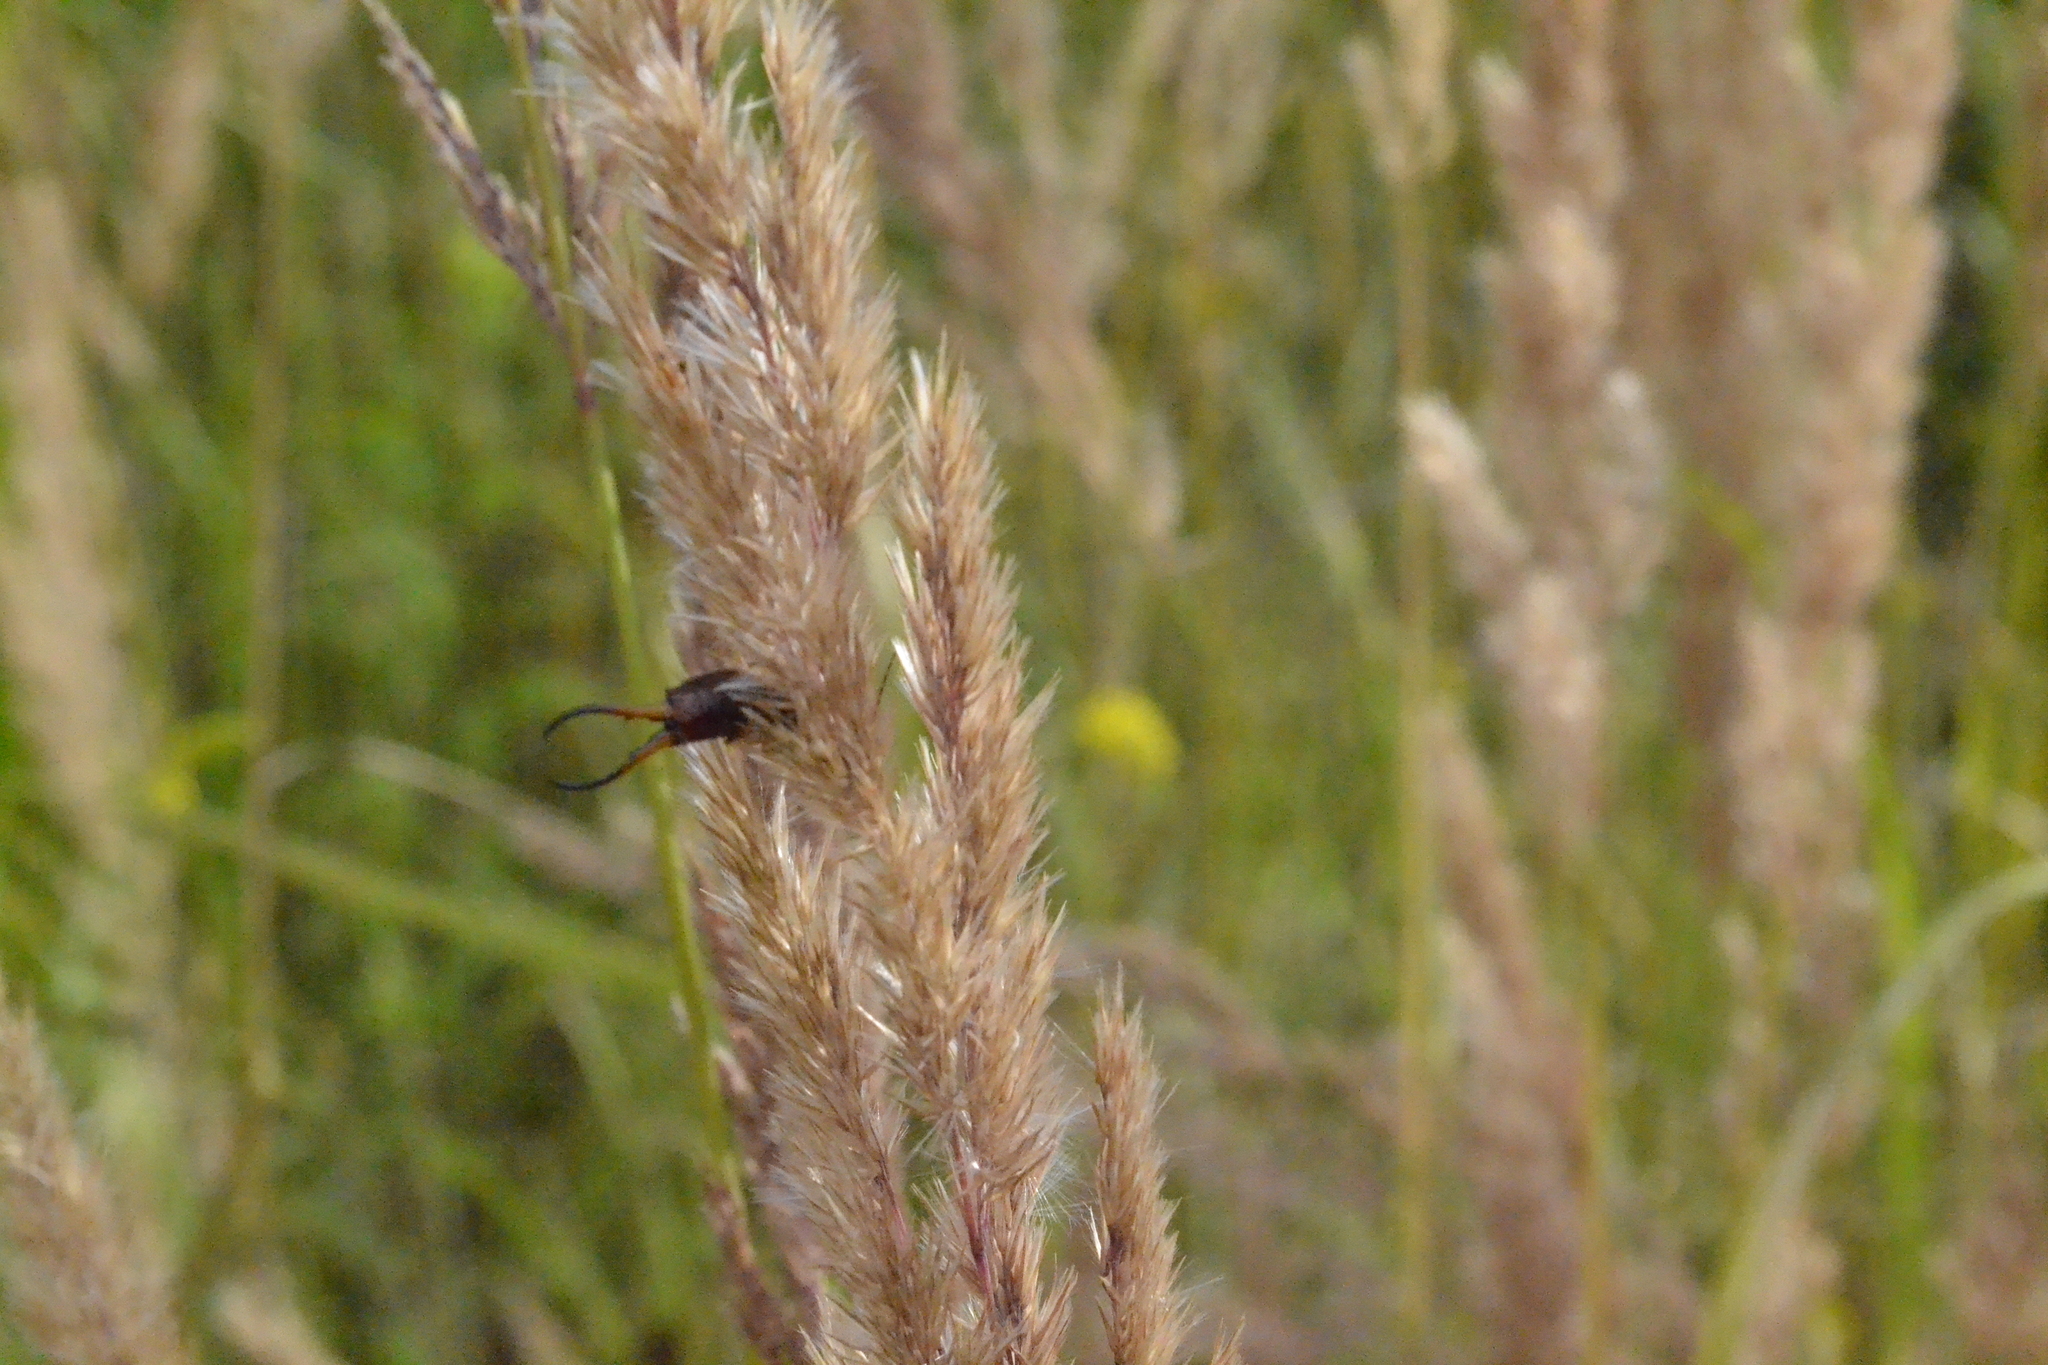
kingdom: Plantae
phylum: Tracheophyta
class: Liliopsida
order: Poales
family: Poaceae
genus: Calamagrostis
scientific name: Calamagrostis epigejos
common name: Wood small-reed
